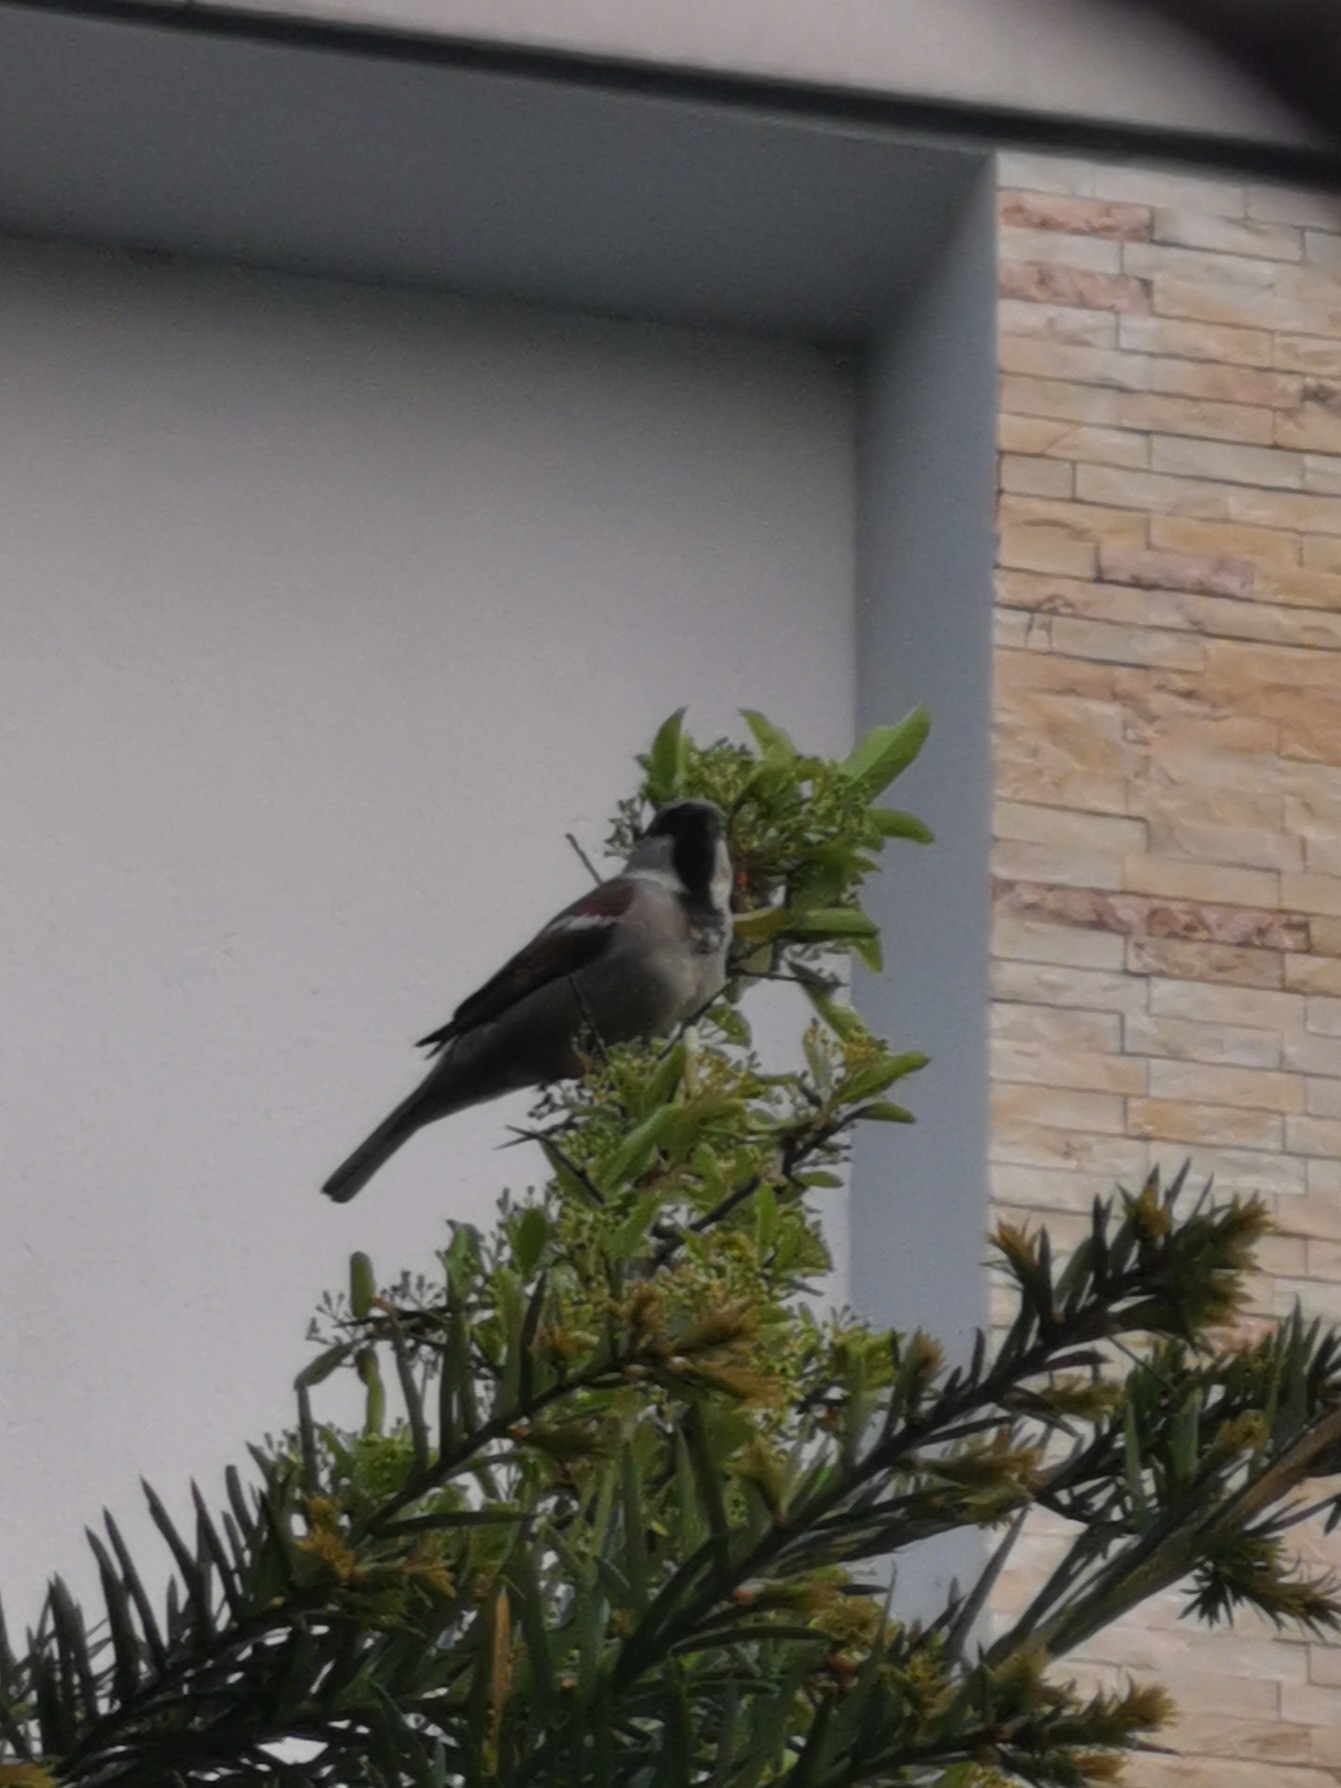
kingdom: Animalia
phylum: Chordata
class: Aves
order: Passeriformes
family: Passeridae
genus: Passer
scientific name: Passer domesticus
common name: House sparrow
